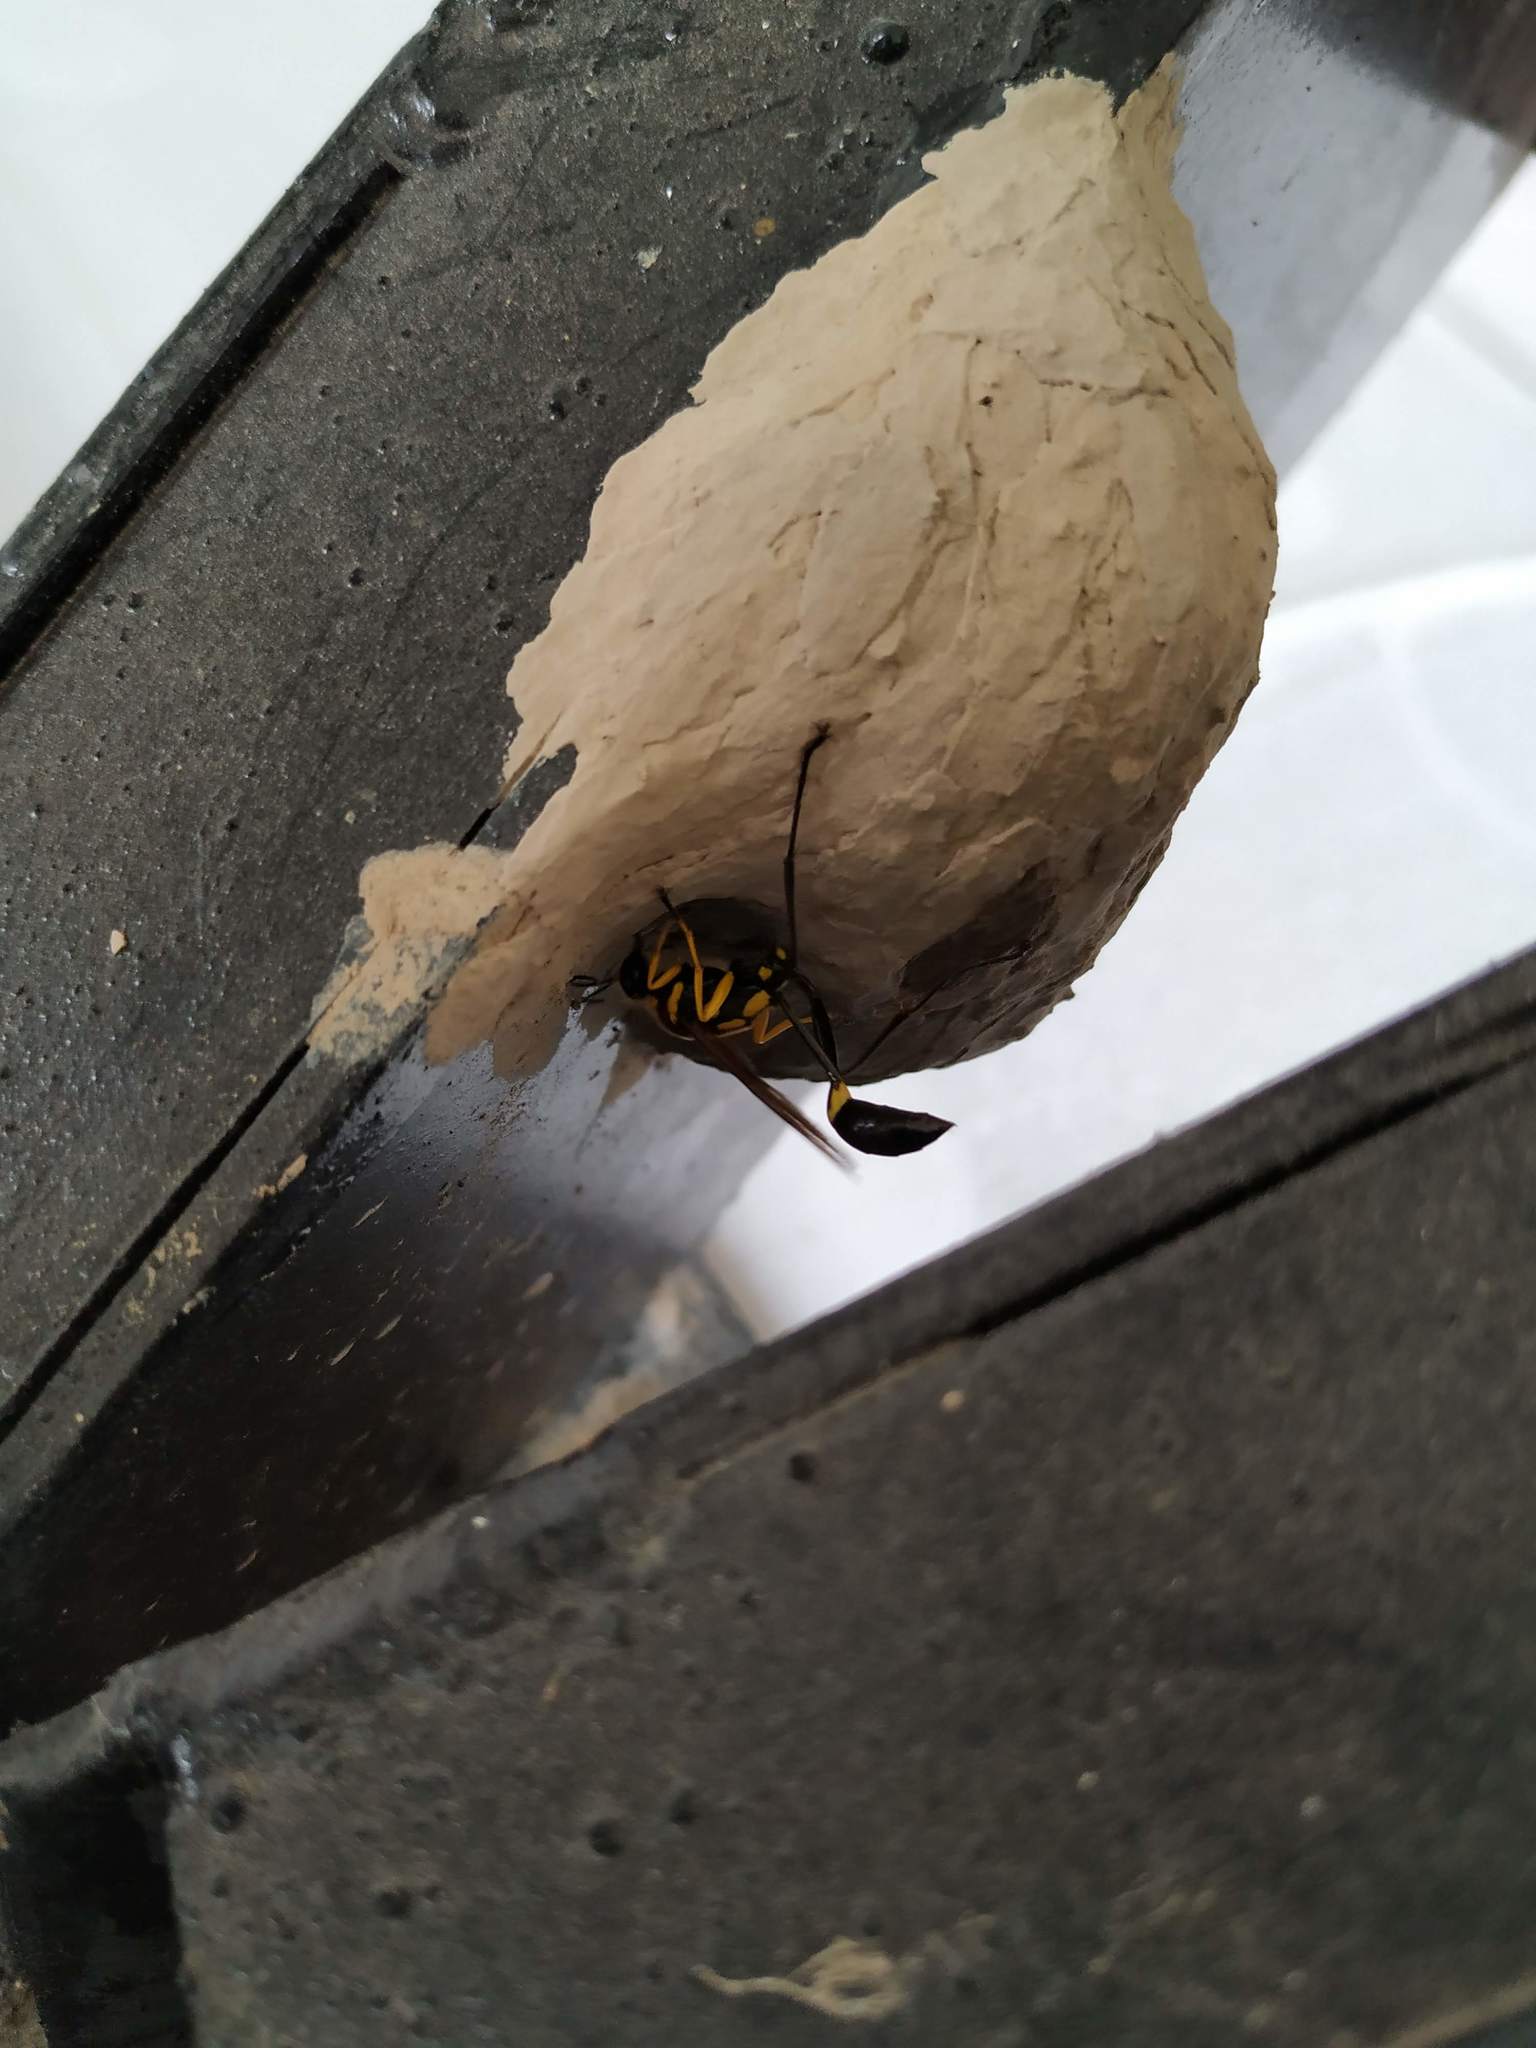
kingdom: Animalia
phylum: Arthropoda
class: Insecta
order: Hymenoptera
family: Sphecidae
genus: Sceliphron
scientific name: Sceliphron fistularium
